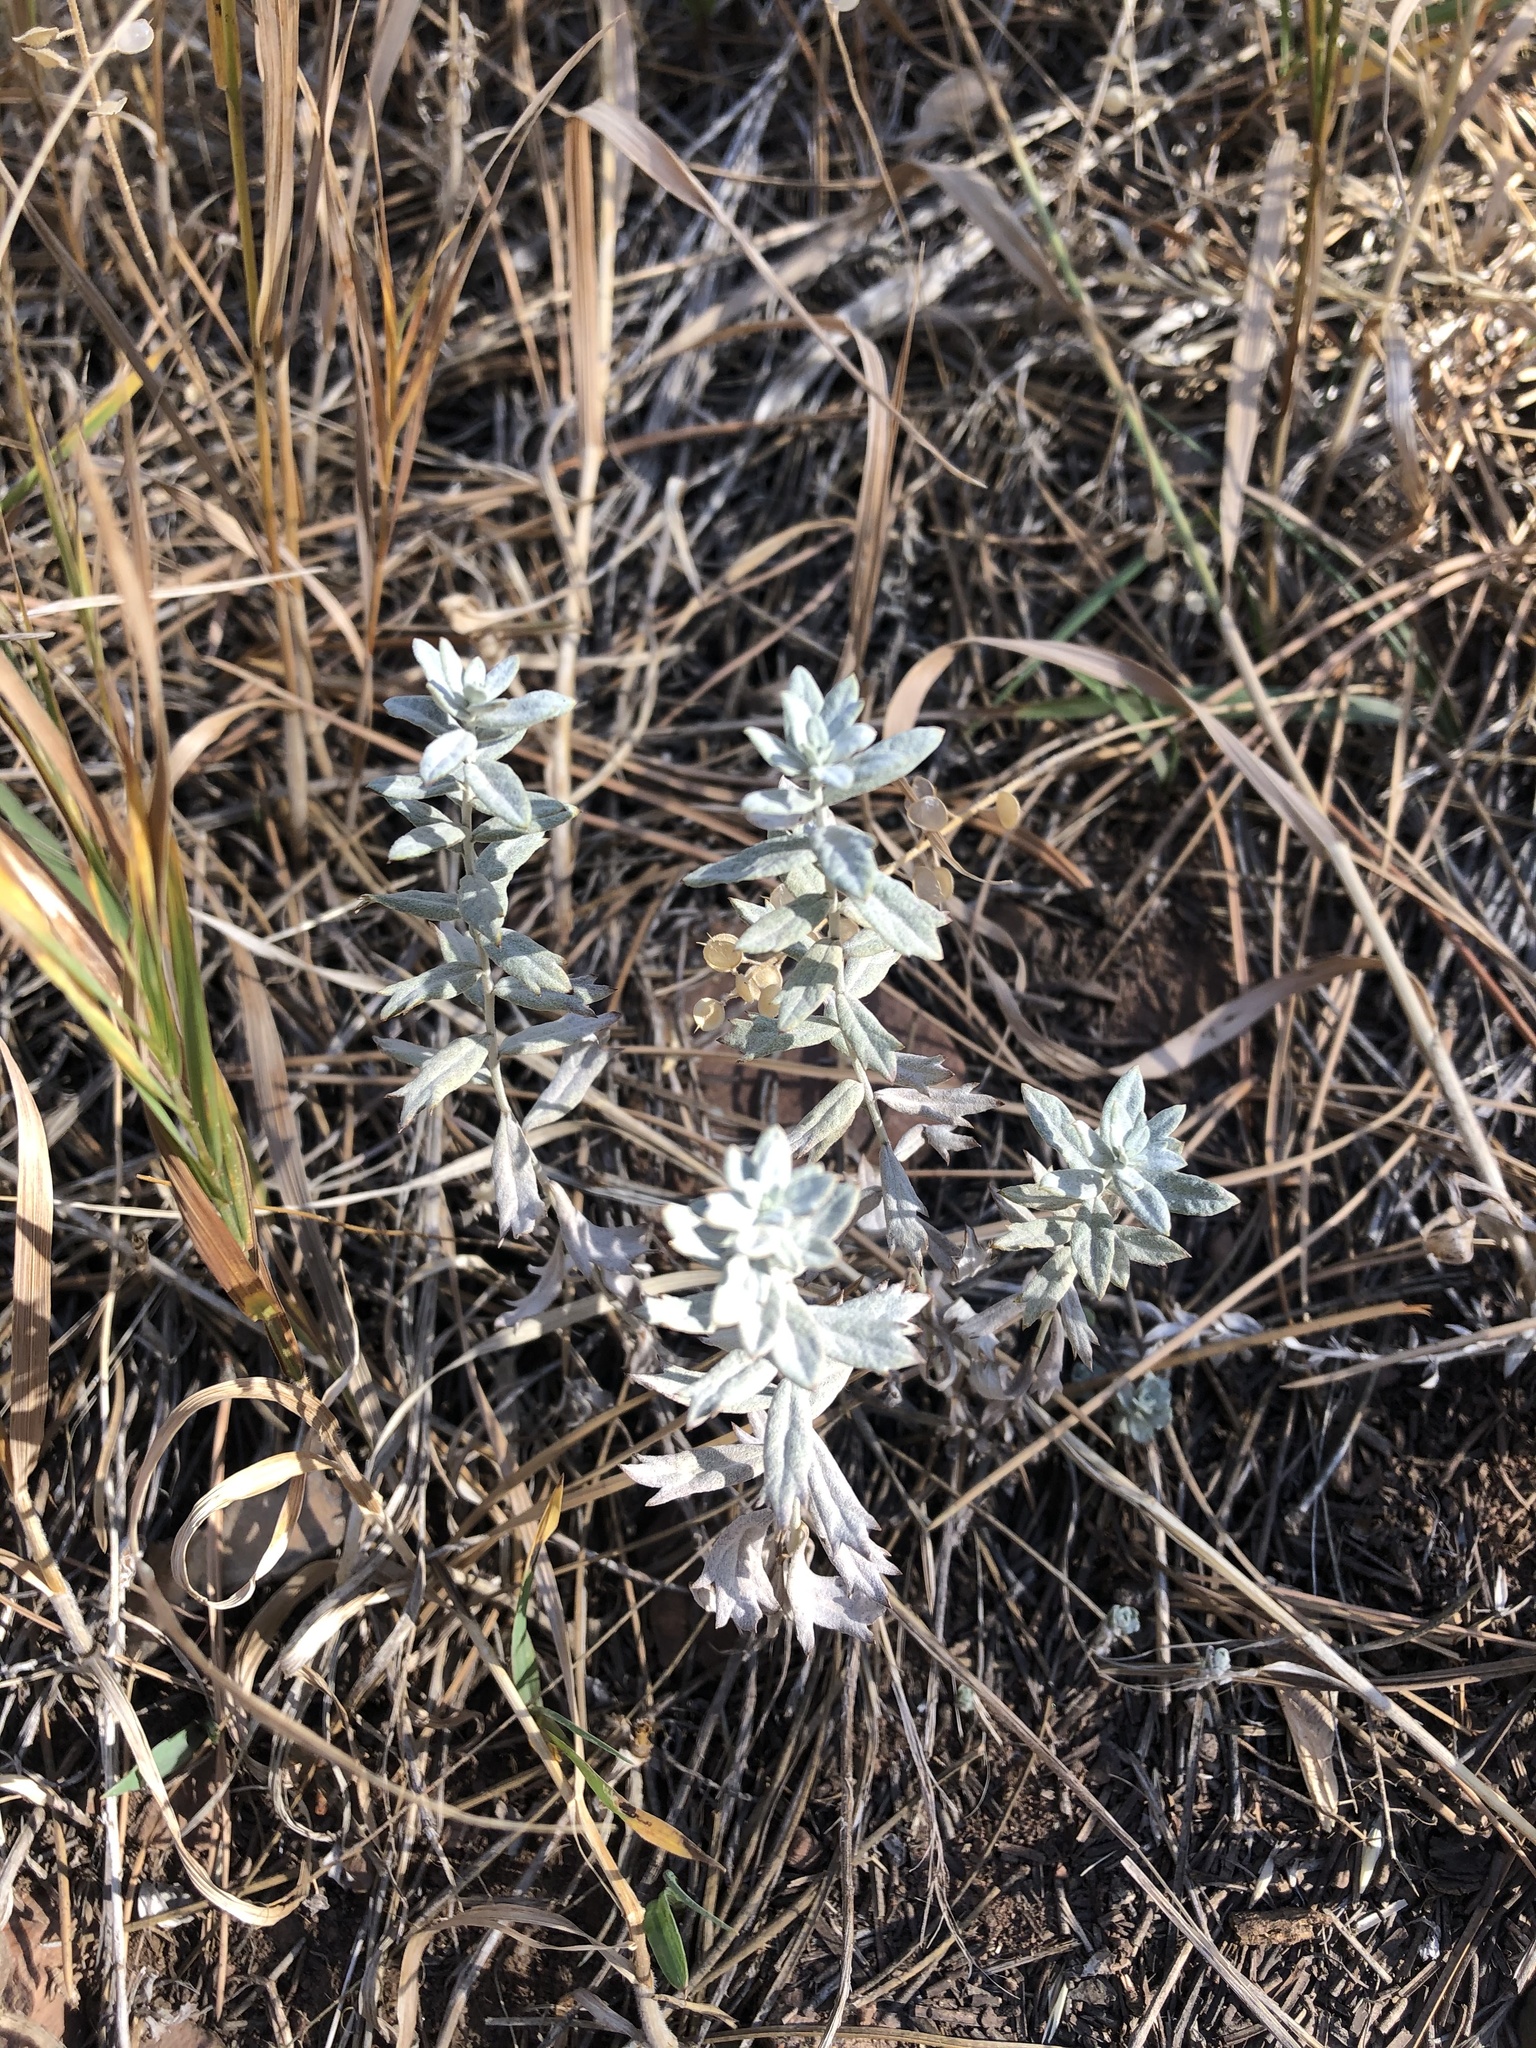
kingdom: Plantae
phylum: Tracheophyta
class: Magnoliopsida
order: Asterales
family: Asteraceae
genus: Artemisia
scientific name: Artemisia ludoviciana
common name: Western mugwort
